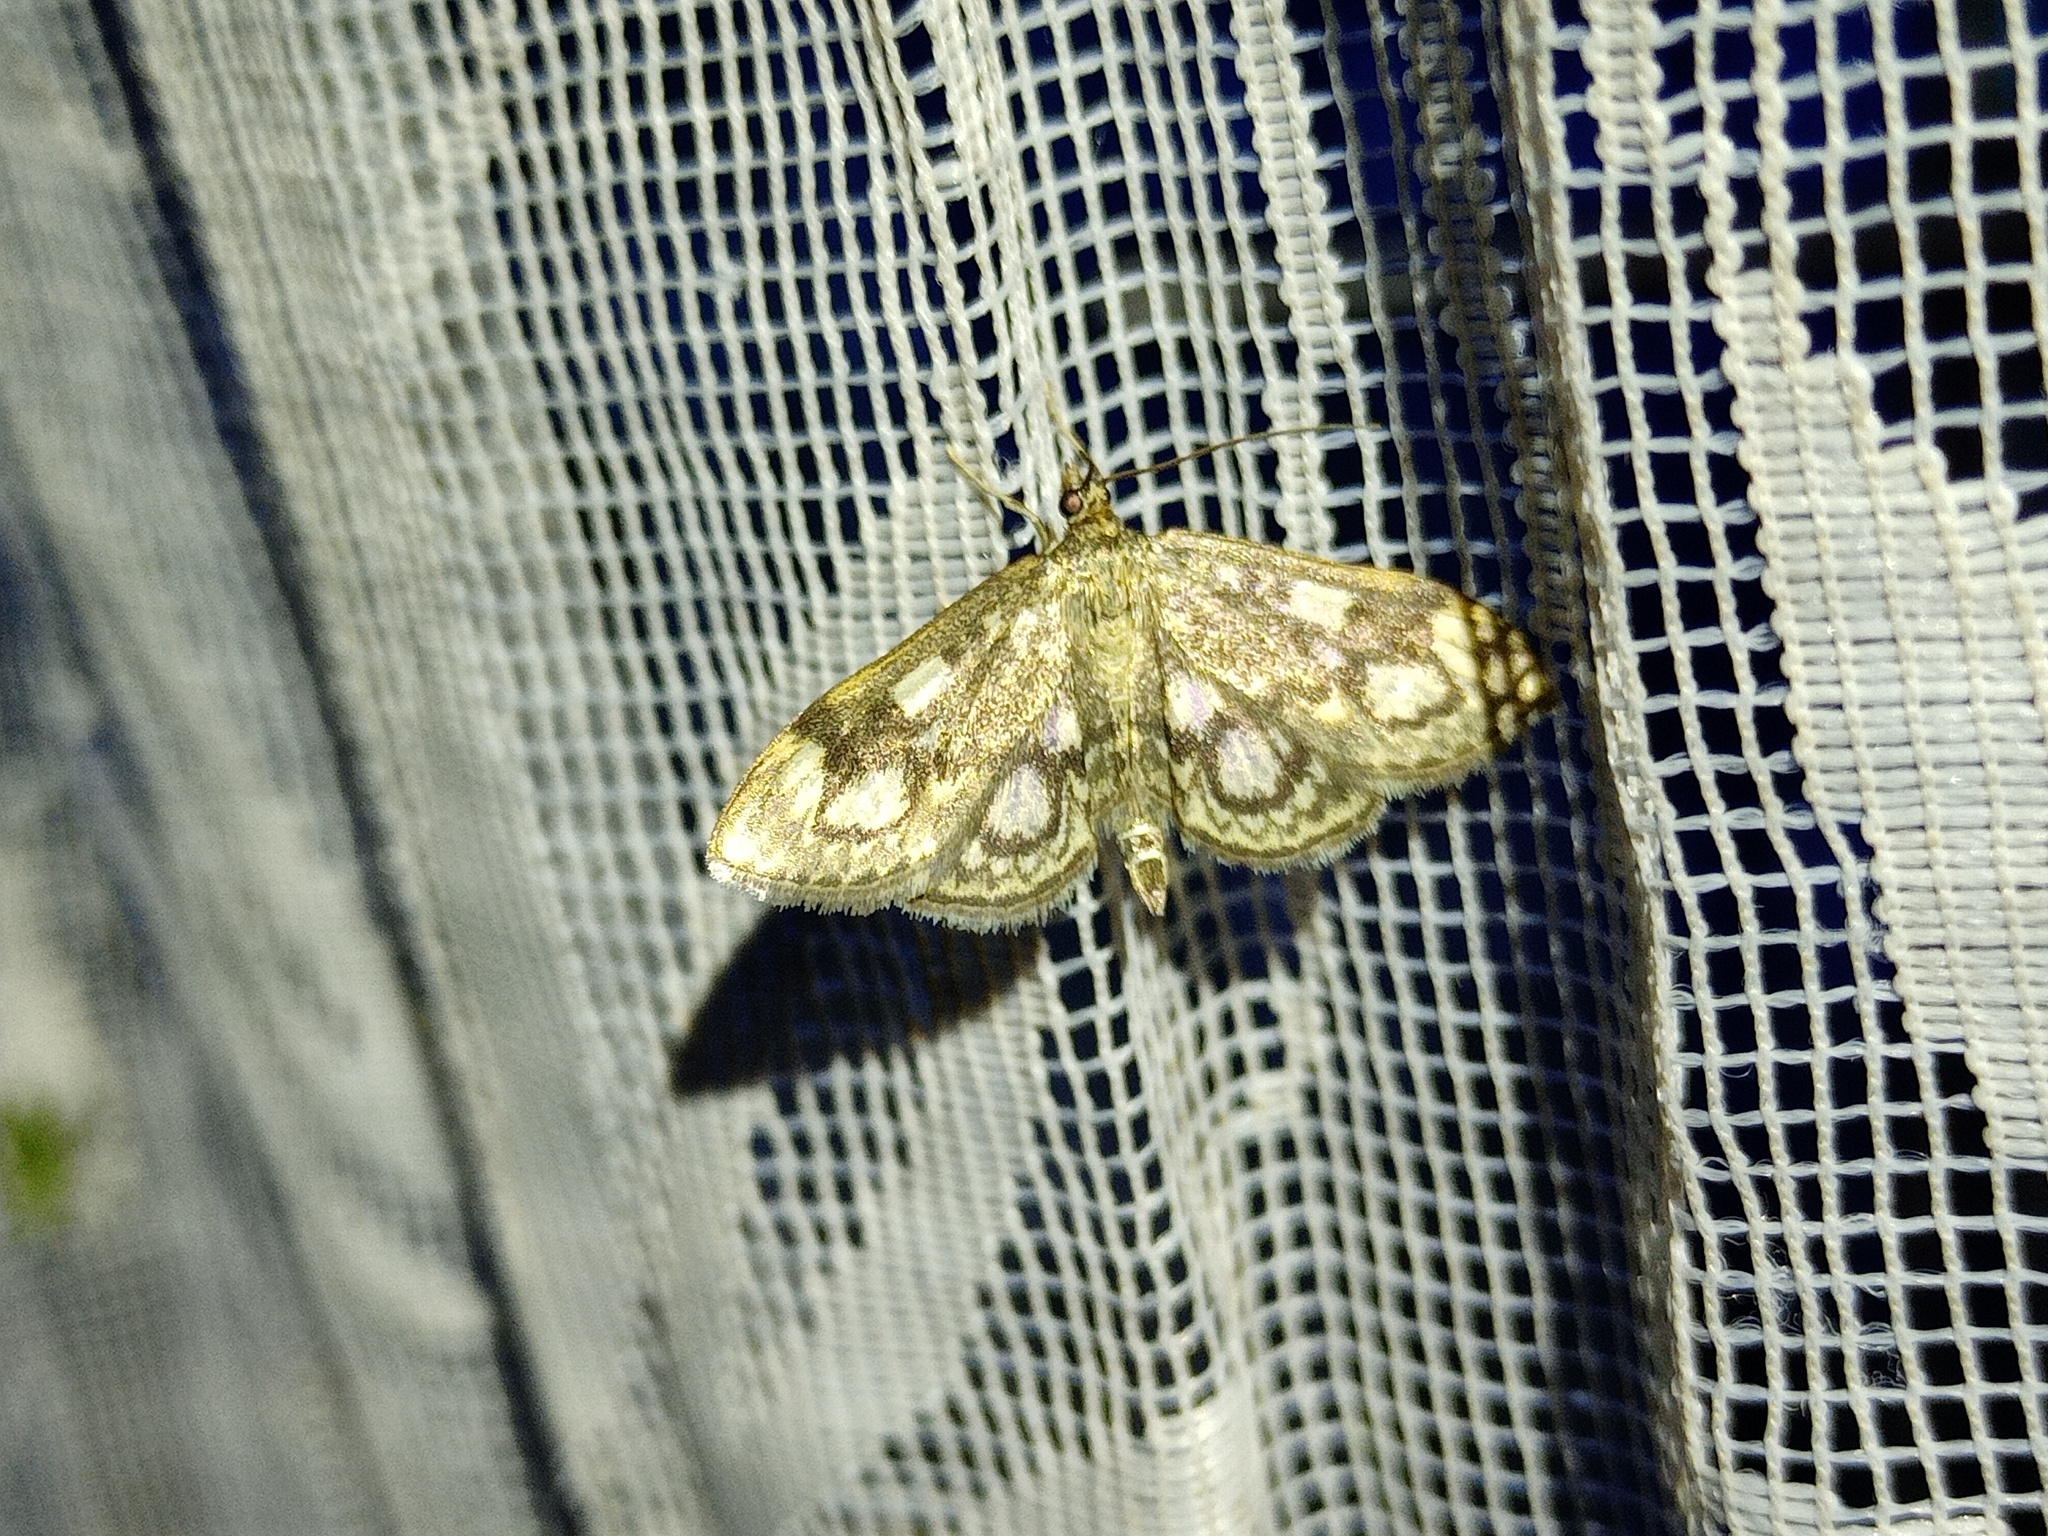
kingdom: Animalia
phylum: Arthropoda
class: Insecta
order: Lepidoptera
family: Crambidae
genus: Anania
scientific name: Anania coronata
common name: Elder pearl
